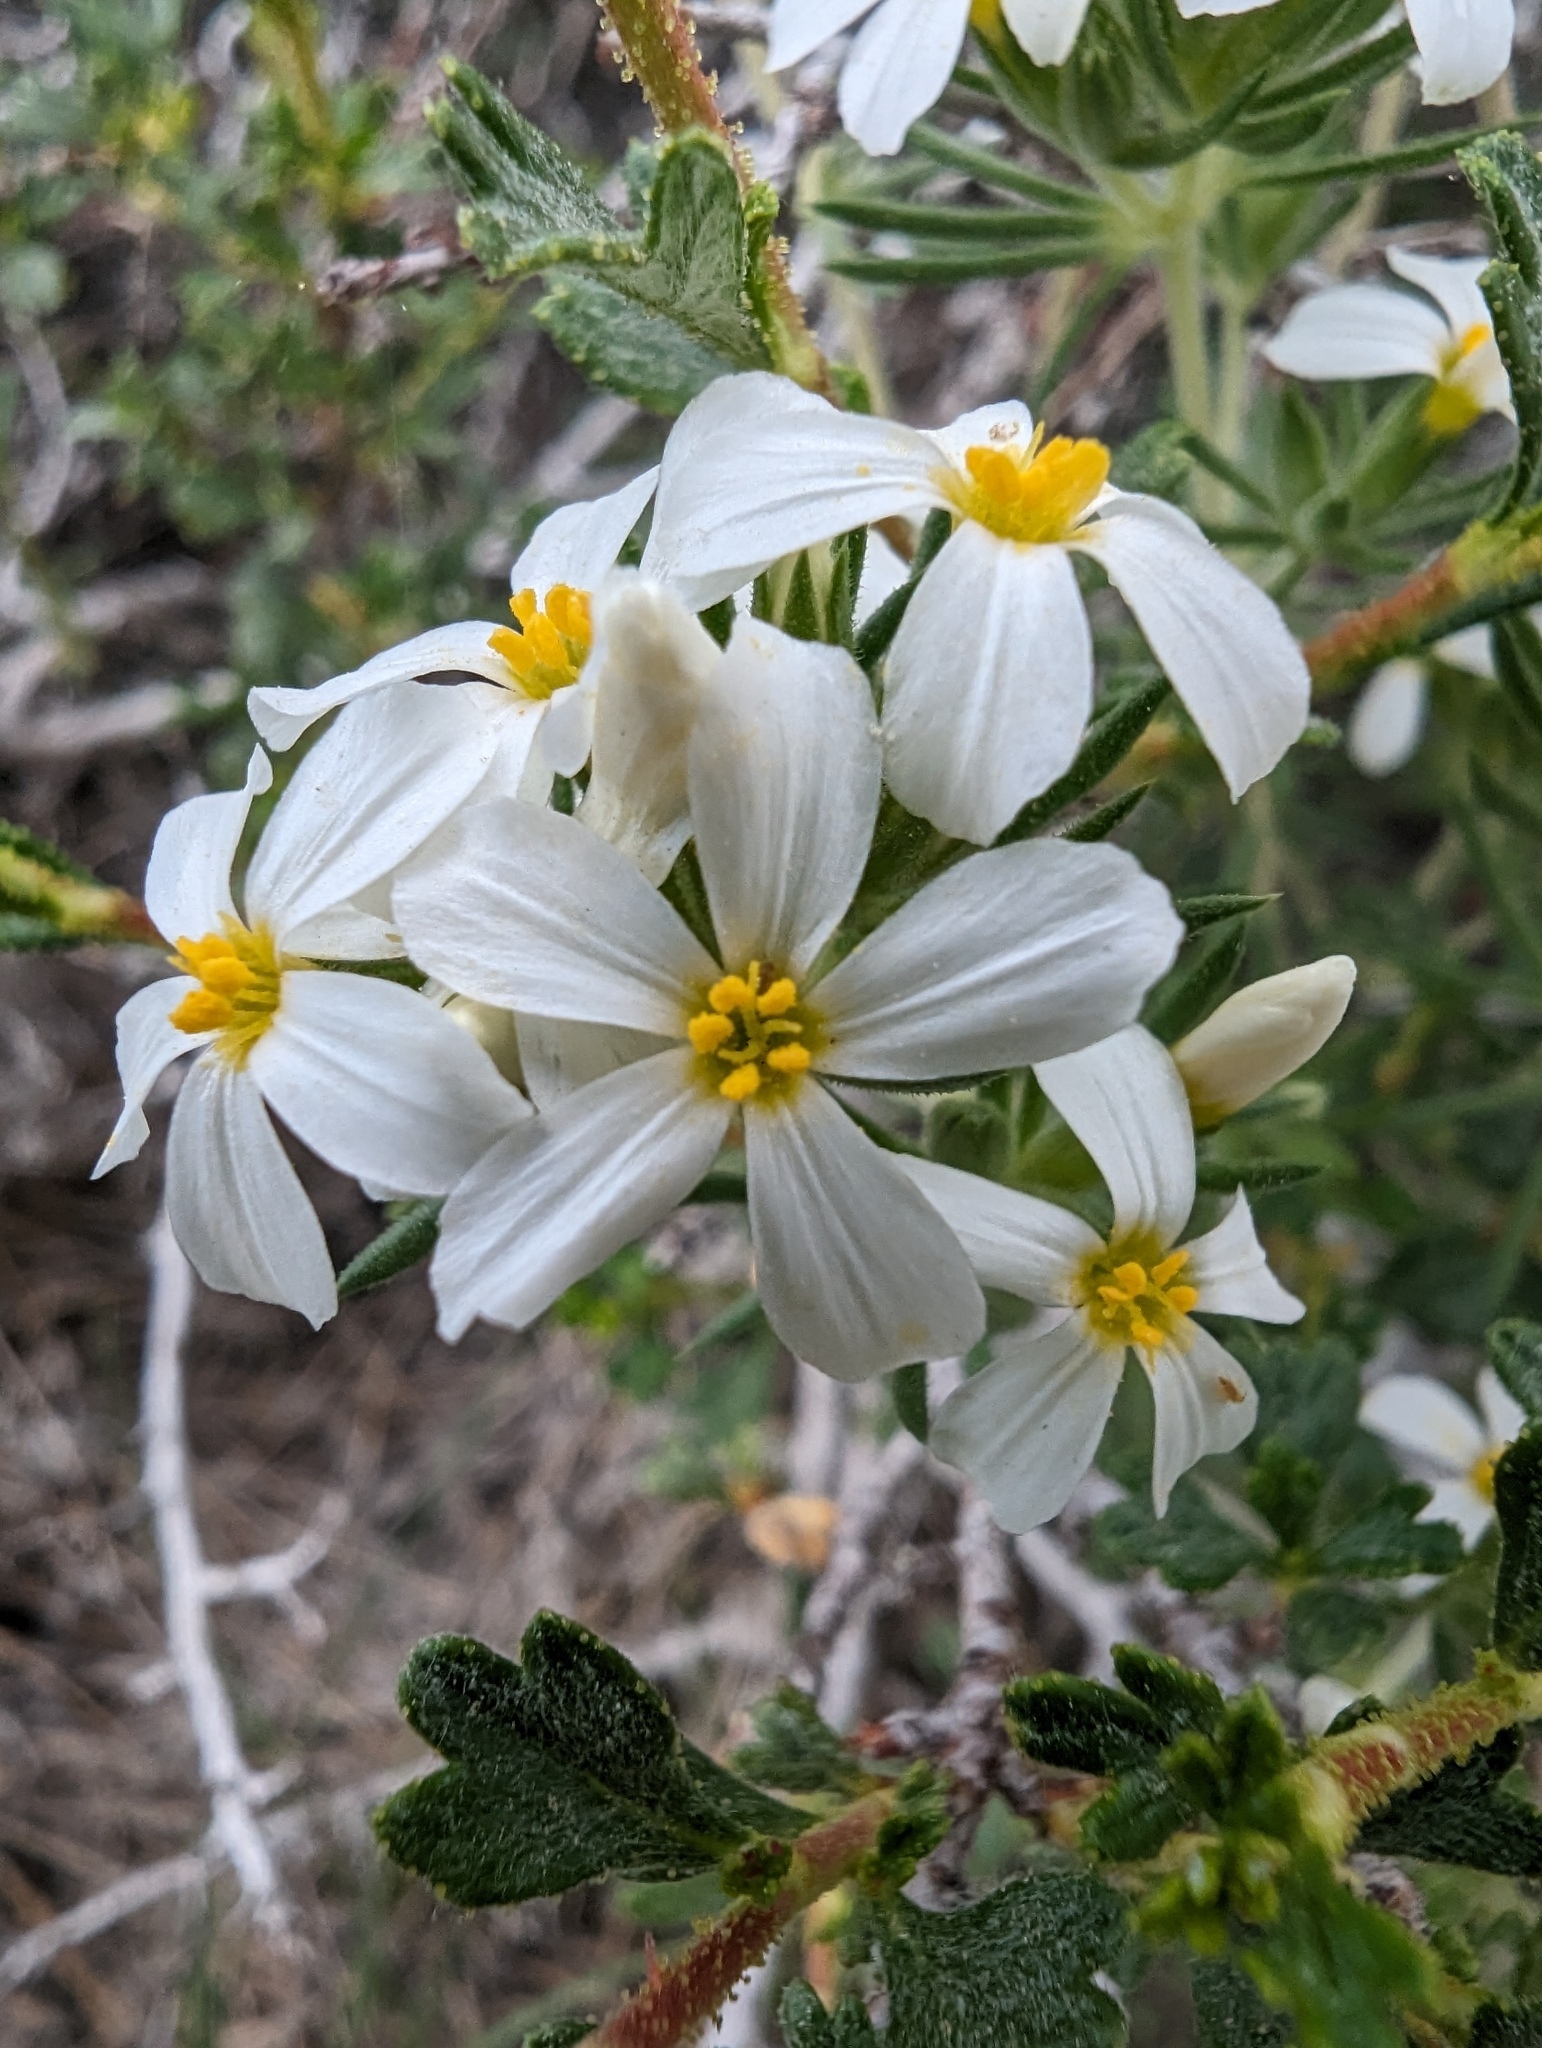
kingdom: Plantae
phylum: Tracheophyta
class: Magnoliopsida
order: Ericales
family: Polemoniaceae
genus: Linanthus
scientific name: Linanthus pungens
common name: Granite prickly phlox
